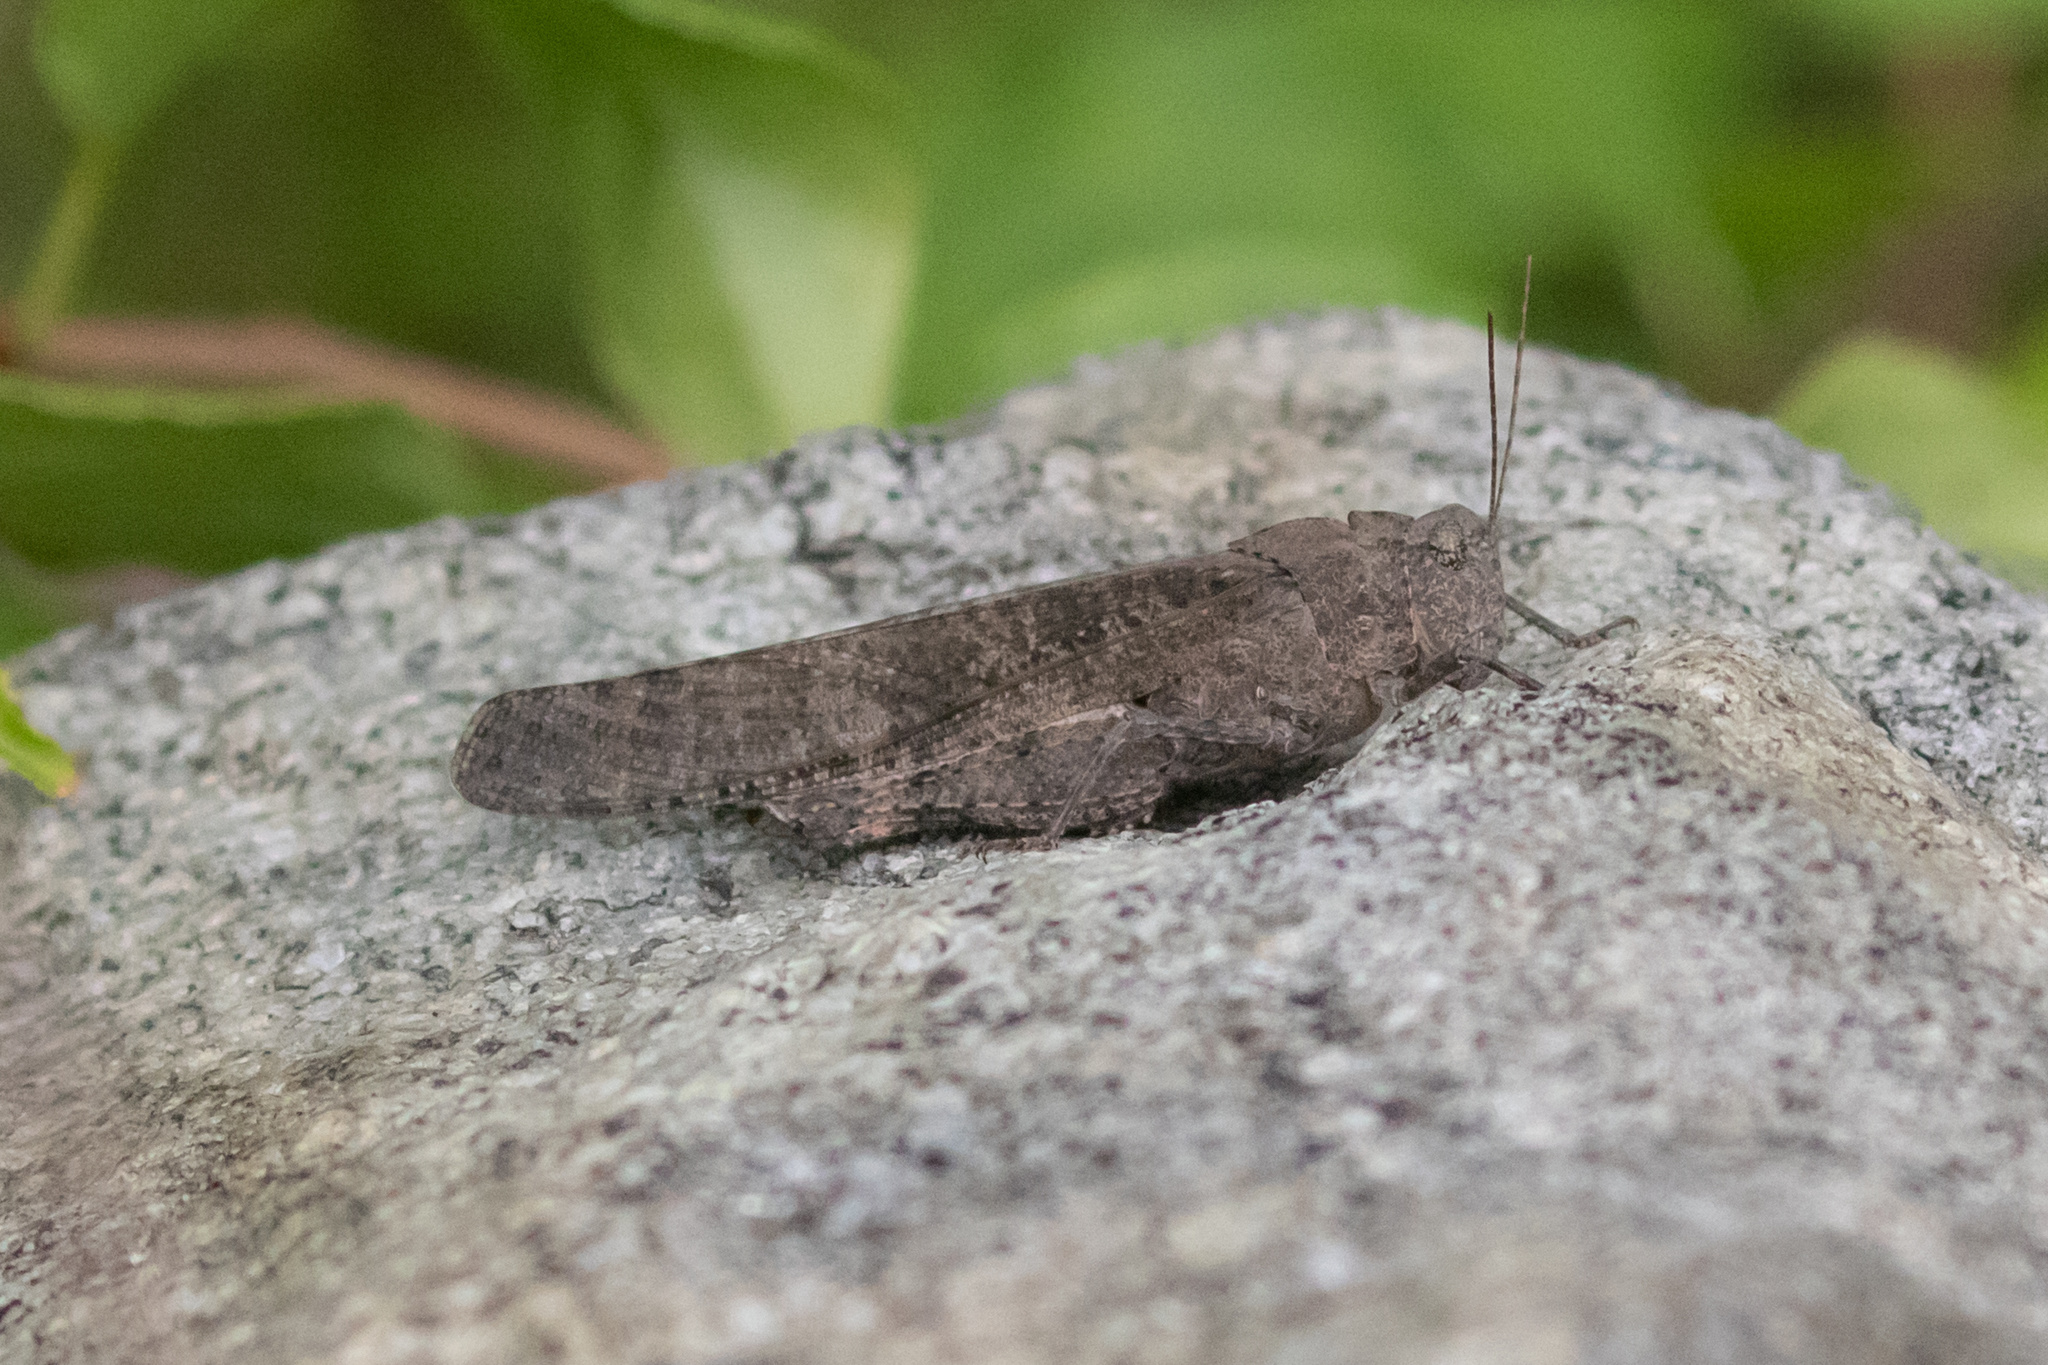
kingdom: Animalia
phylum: Arthropoda
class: Insecta
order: Orthoptera
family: Acrididae
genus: Dissosteira
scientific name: Dissosteira carolina
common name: Carolina grasshopper
